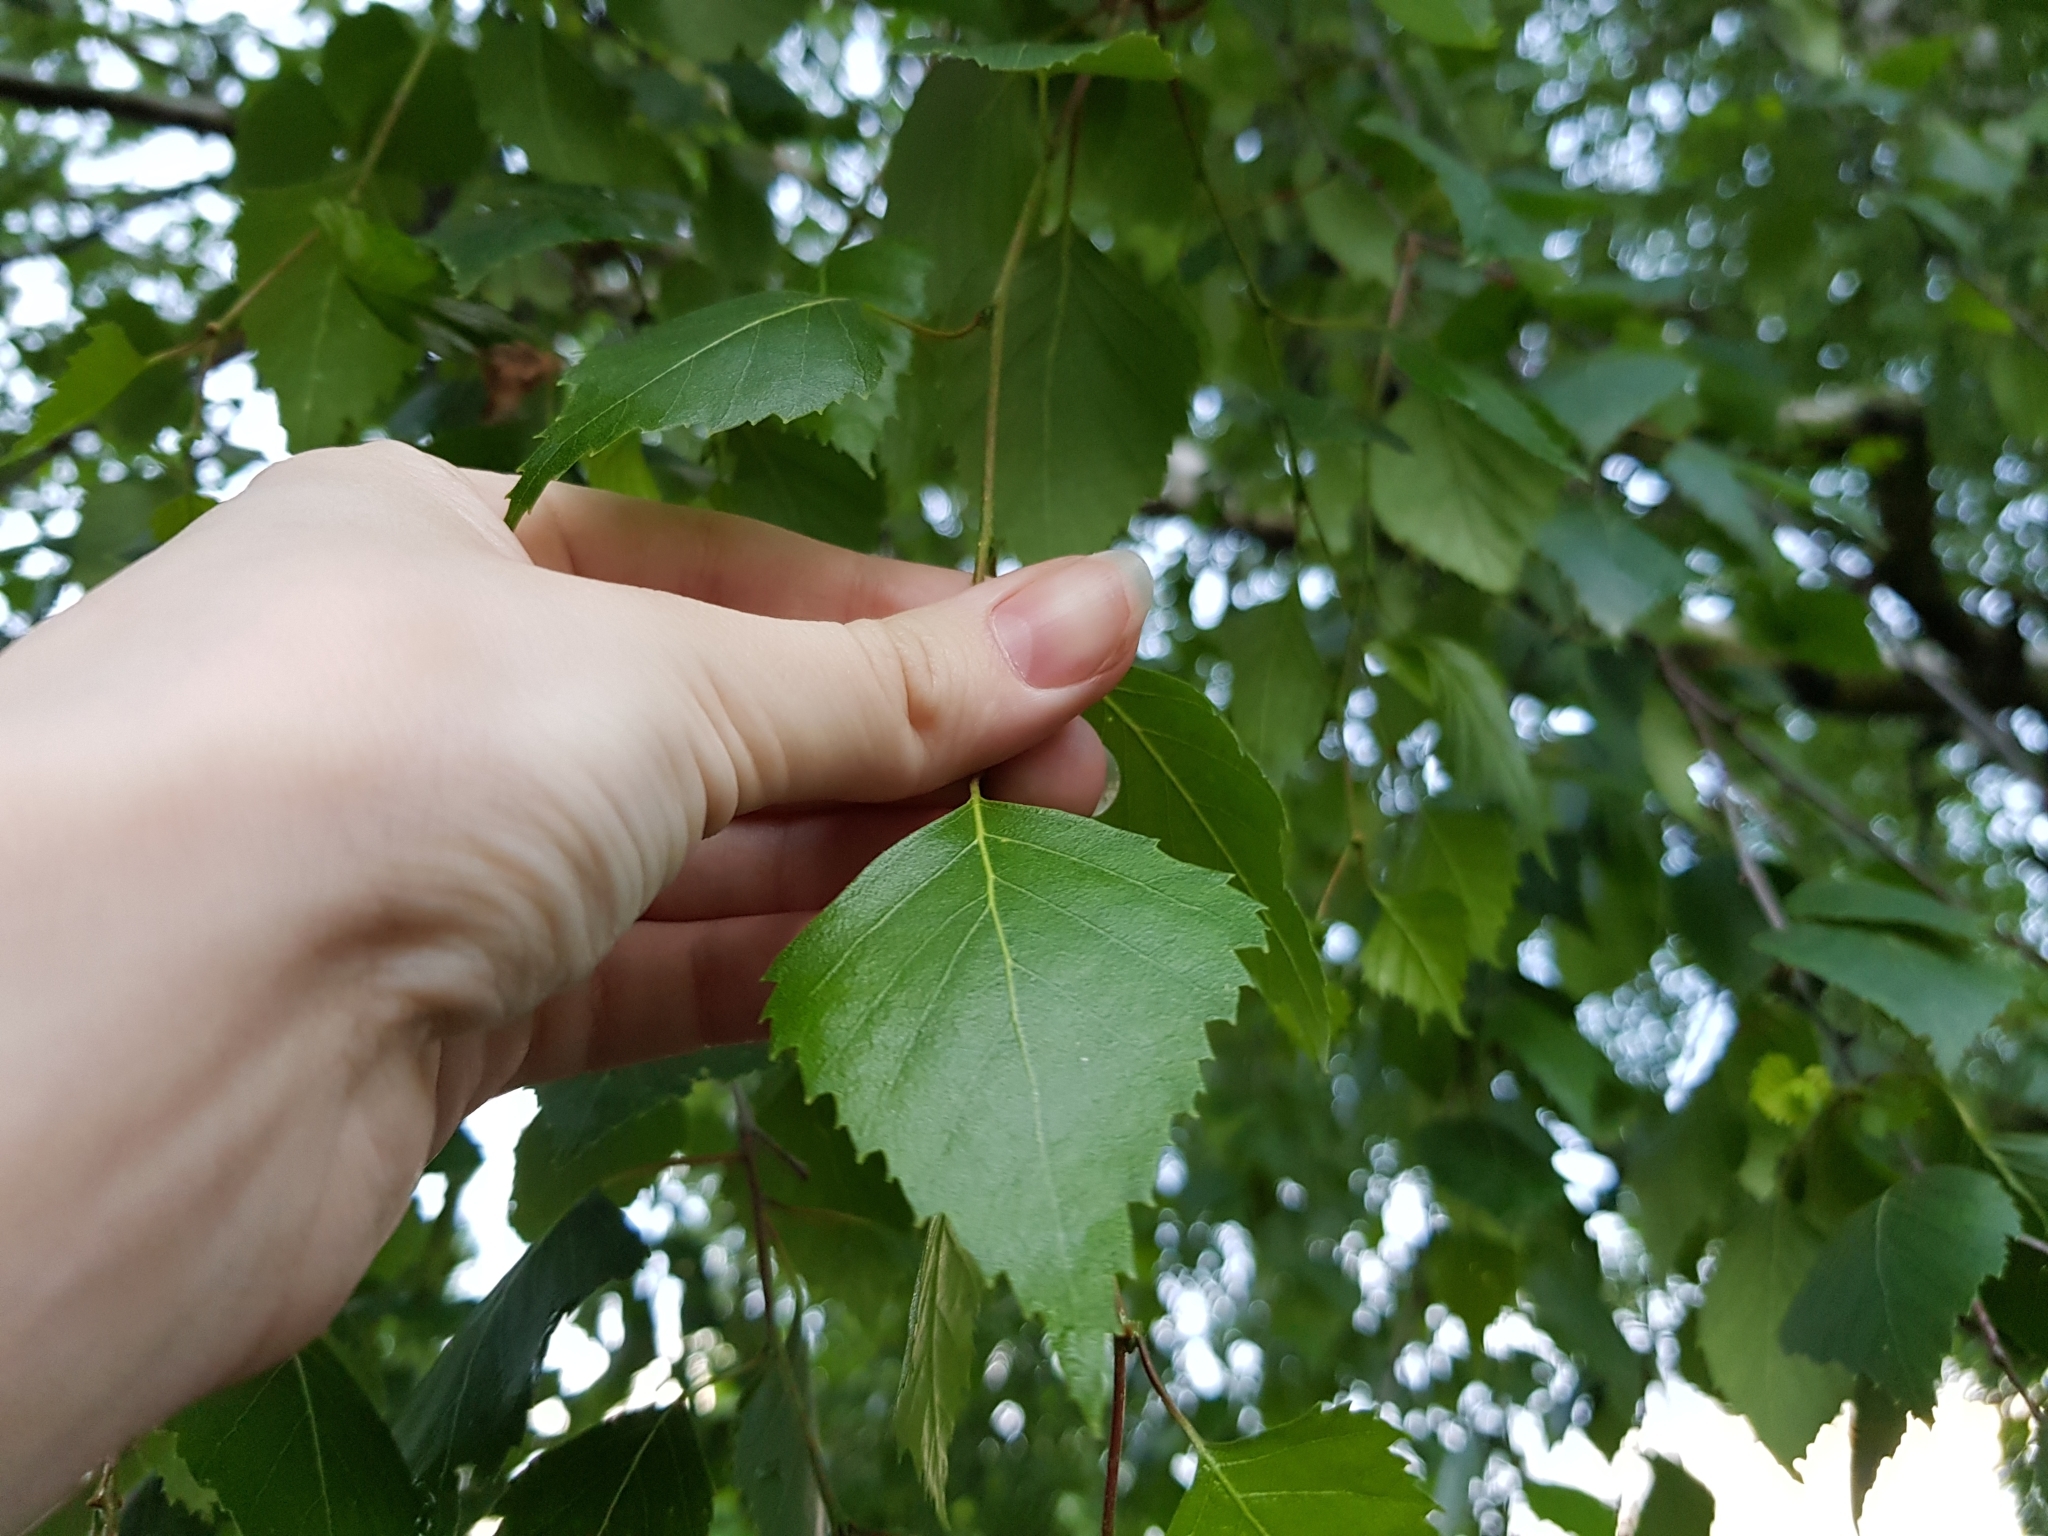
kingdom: Plantae
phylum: Tracheophyta
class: Magnoliopsida
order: Fagales
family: Betulaceae
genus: Betula
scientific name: Betula pendula
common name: Silver birch
